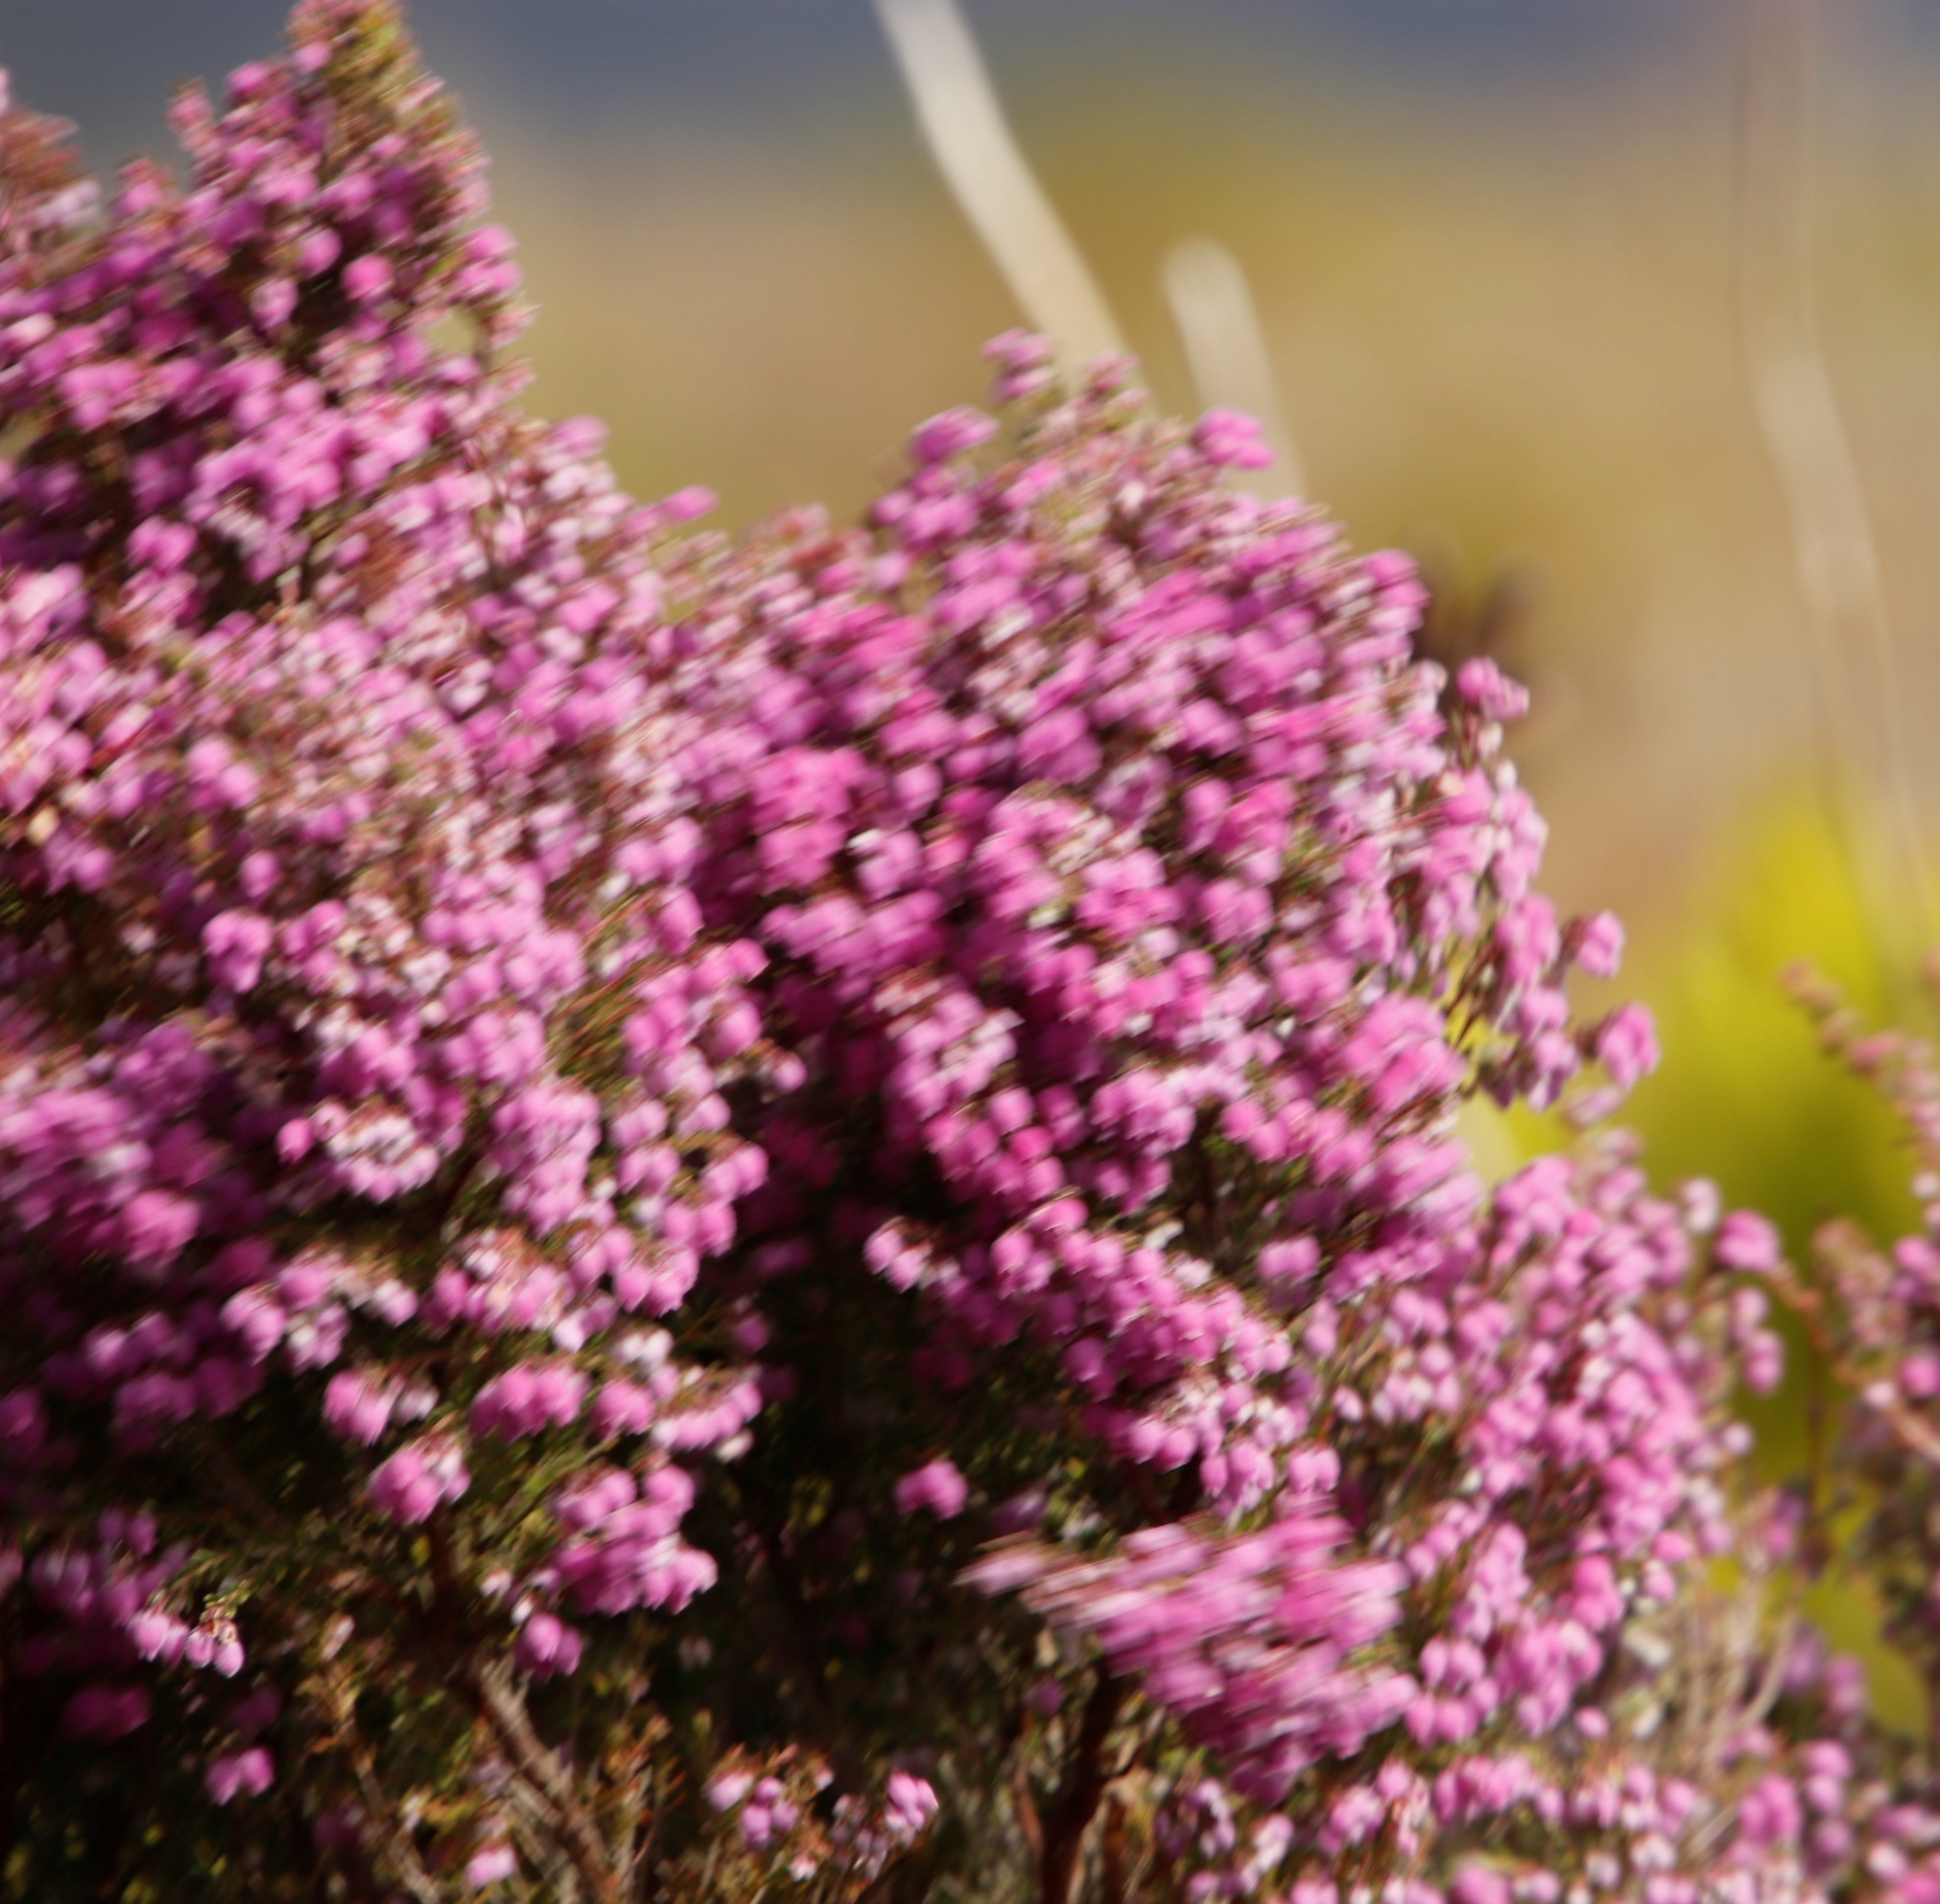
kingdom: Plantae
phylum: Tracheophyta
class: Magnoliopsida
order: Ericales
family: Ericaceae
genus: Erica
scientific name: Erica hirtiflora
